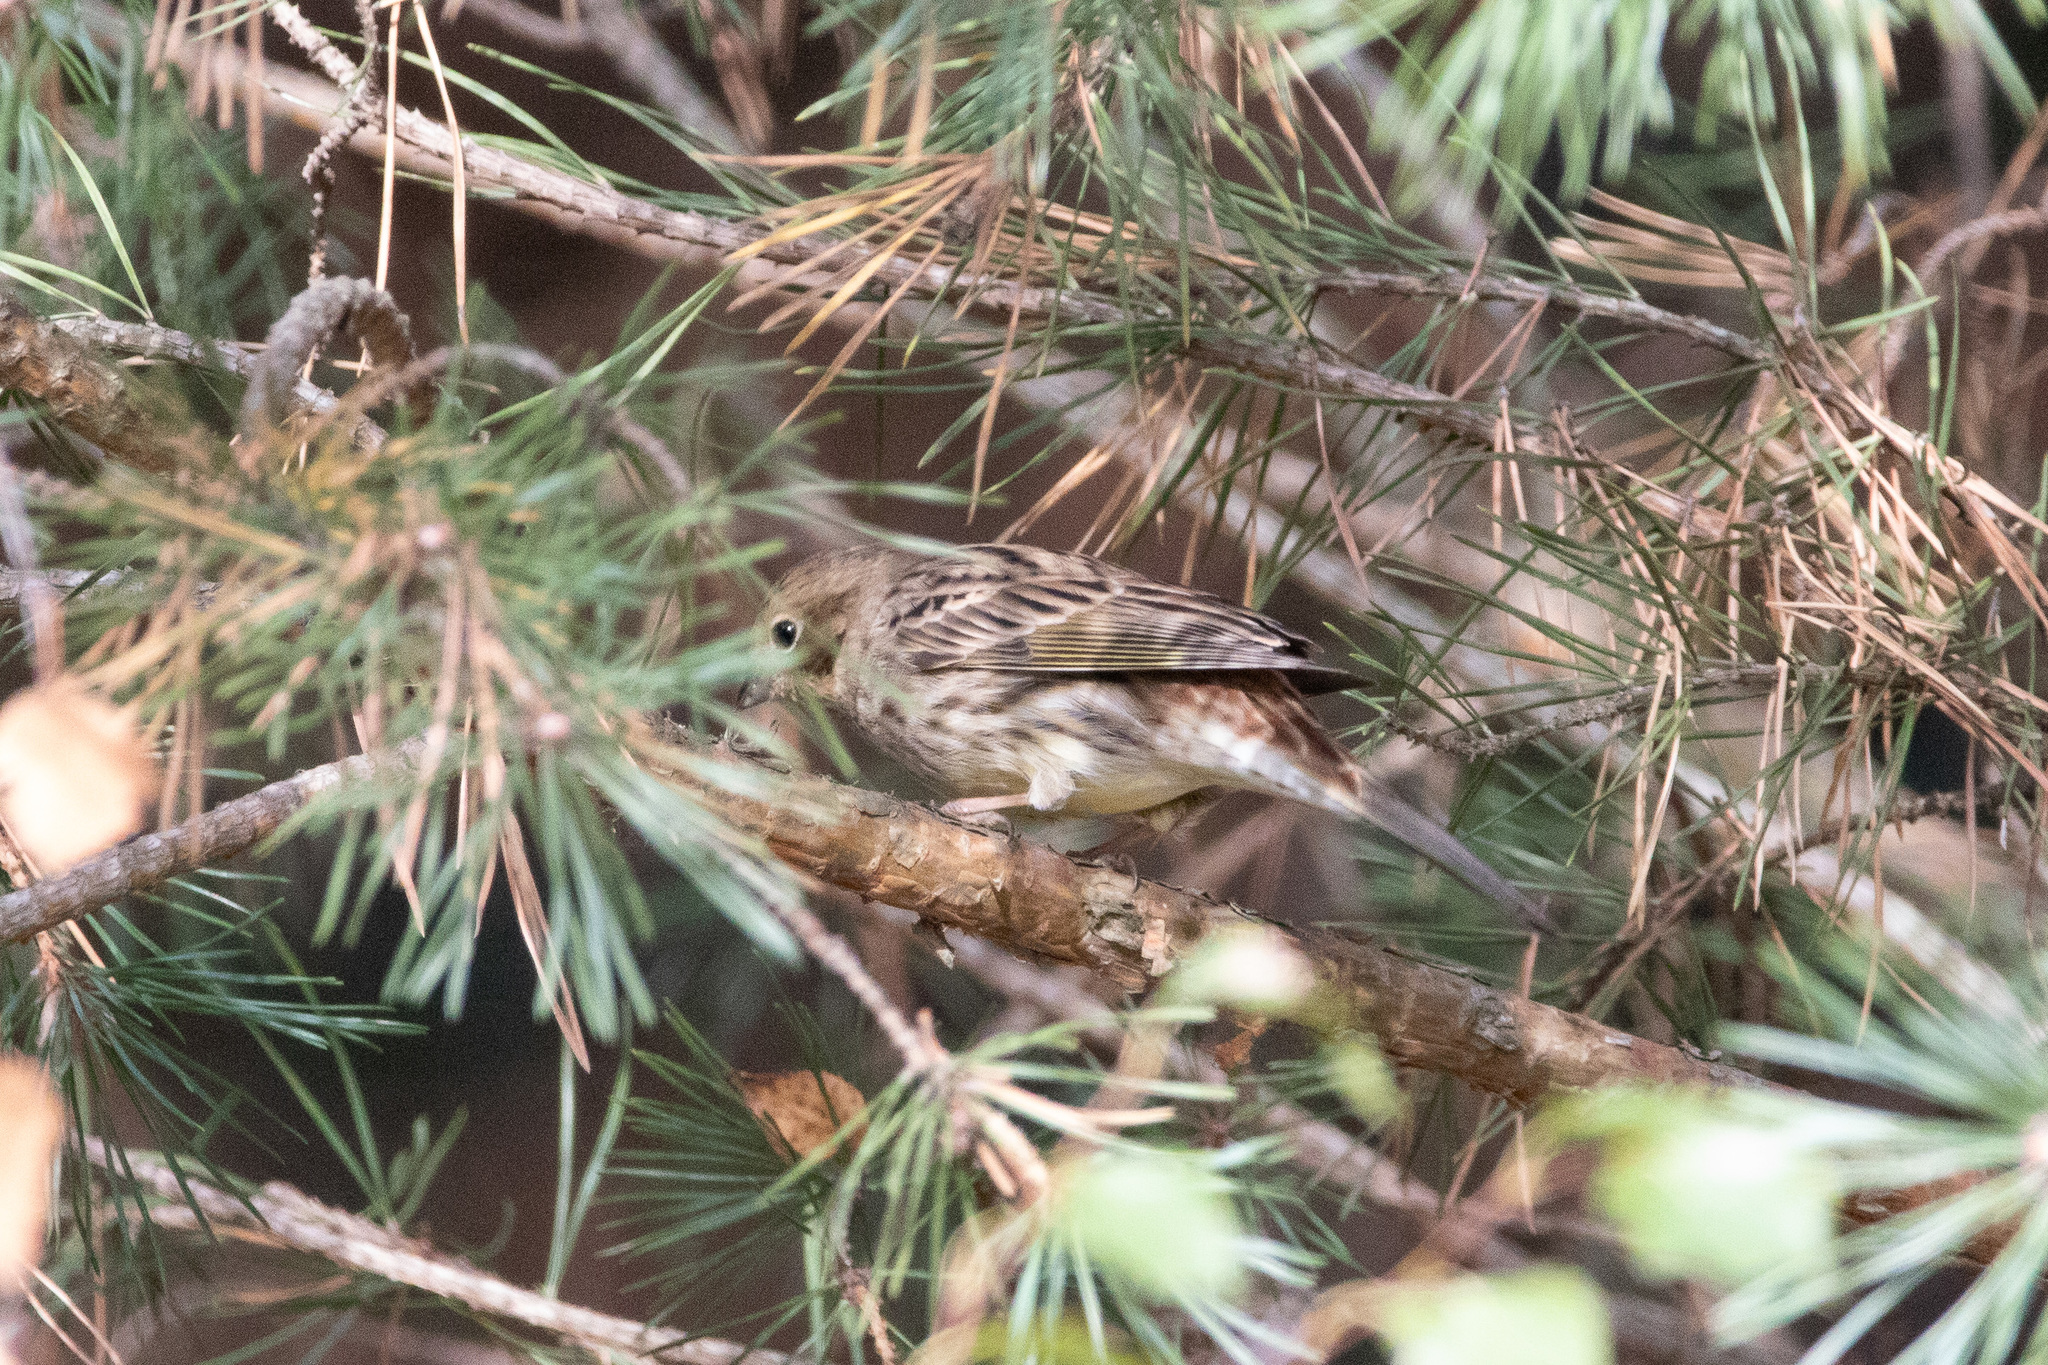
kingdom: Animalia
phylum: Chordata
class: Aves
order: Passeriformes
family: Emberizidae
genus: Emberiza
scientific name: Emberiza citrinella
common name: Yellowhammer
